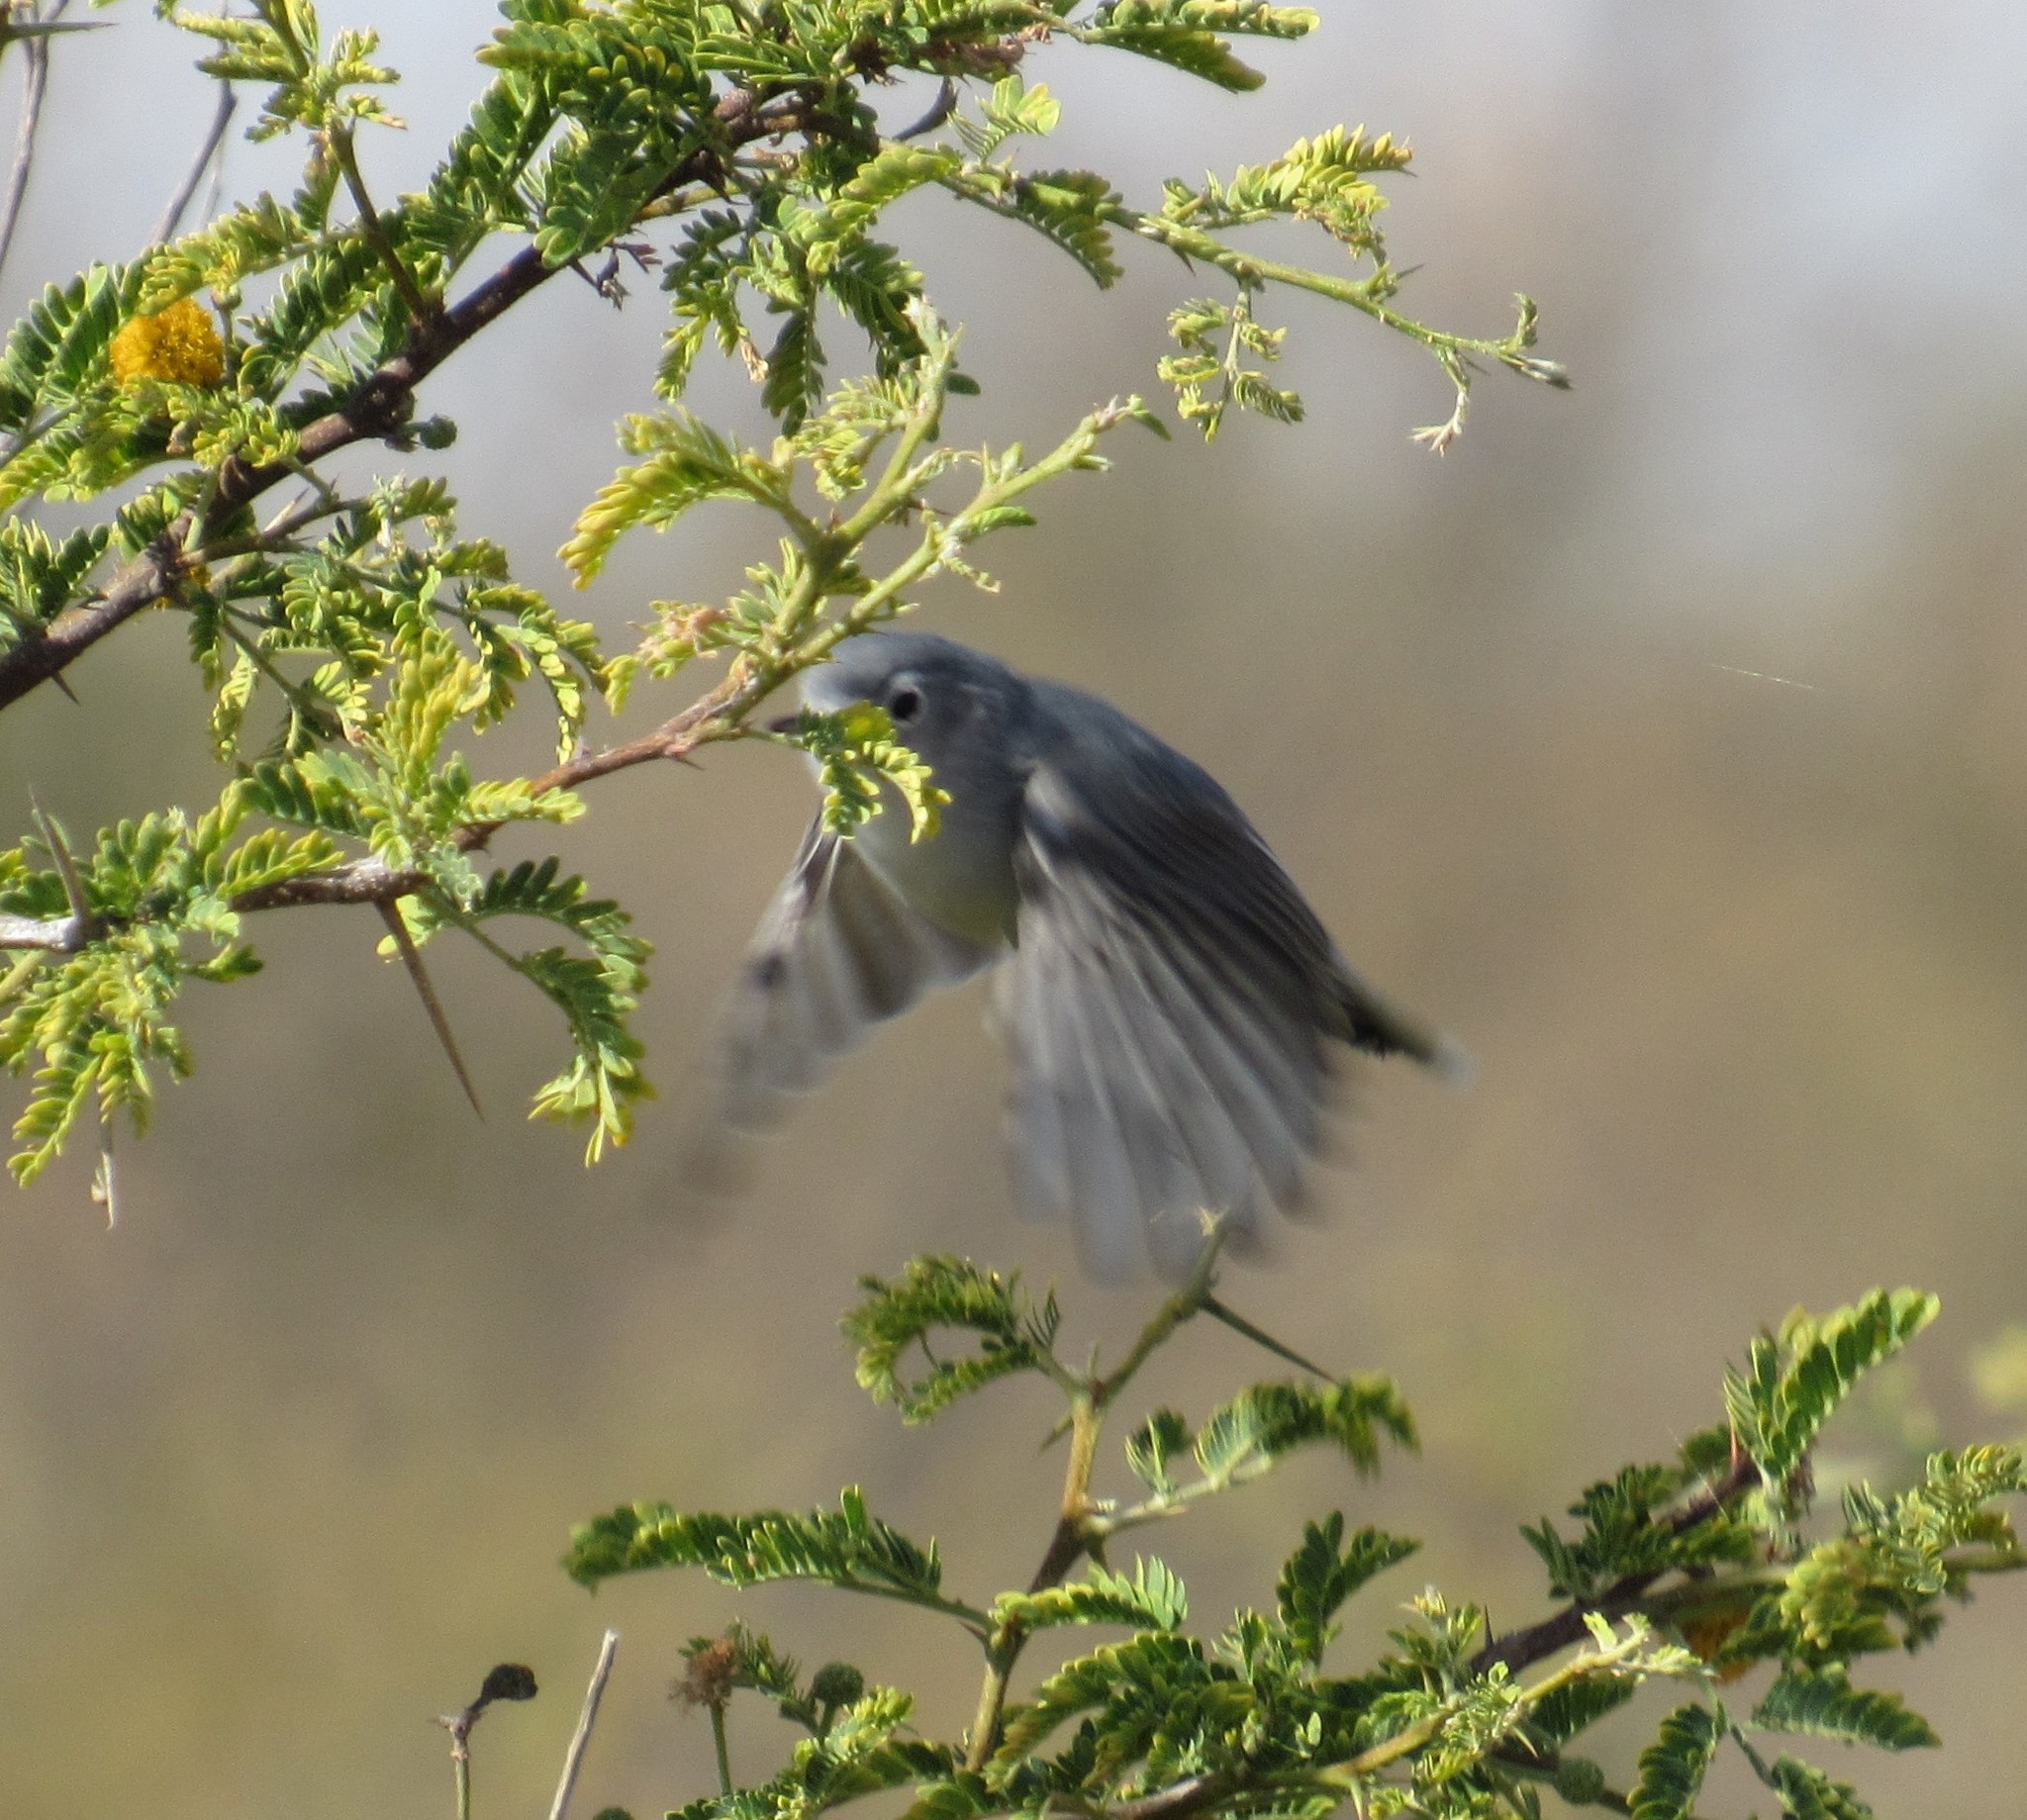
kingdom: Animalia
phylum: Chordata
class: Aves
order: Passeriformes
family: Polioptilidae
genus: Polioptila
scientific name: Polioptila caerulea
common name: Blue-gray gnatcatcher
